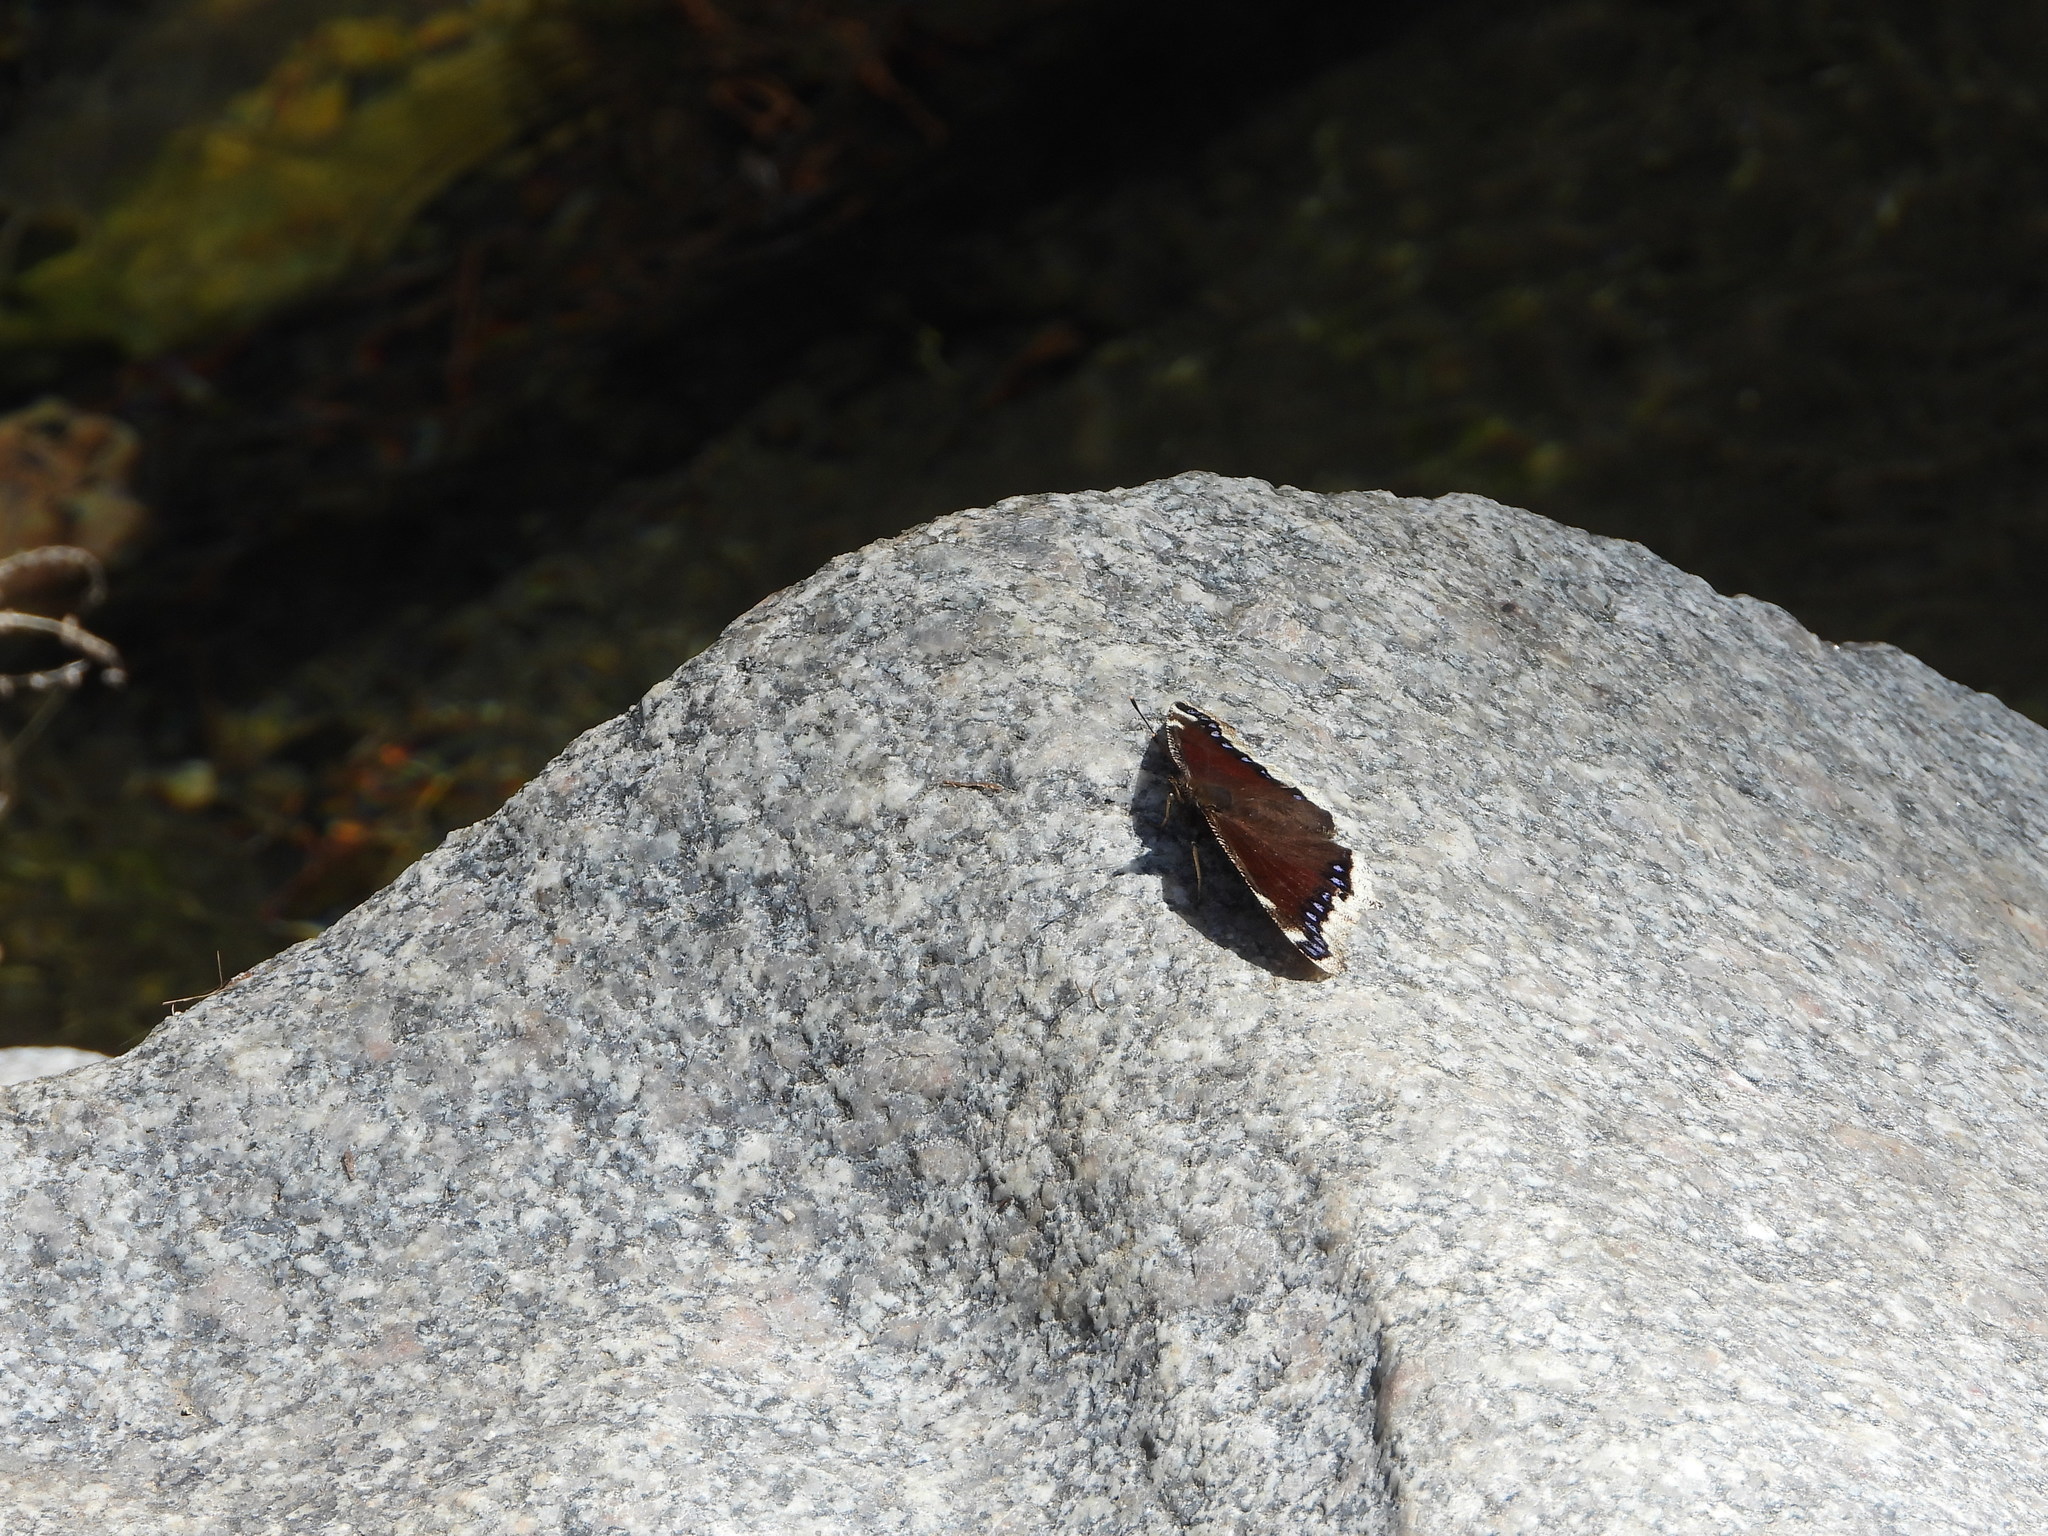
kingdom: Animalia
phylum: Arthropoda
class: Insecta
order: Lepidoptera
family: Nymphalidae
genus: Nymphalis
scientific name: Nymphalis antiopa
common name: Camberwell beauty
